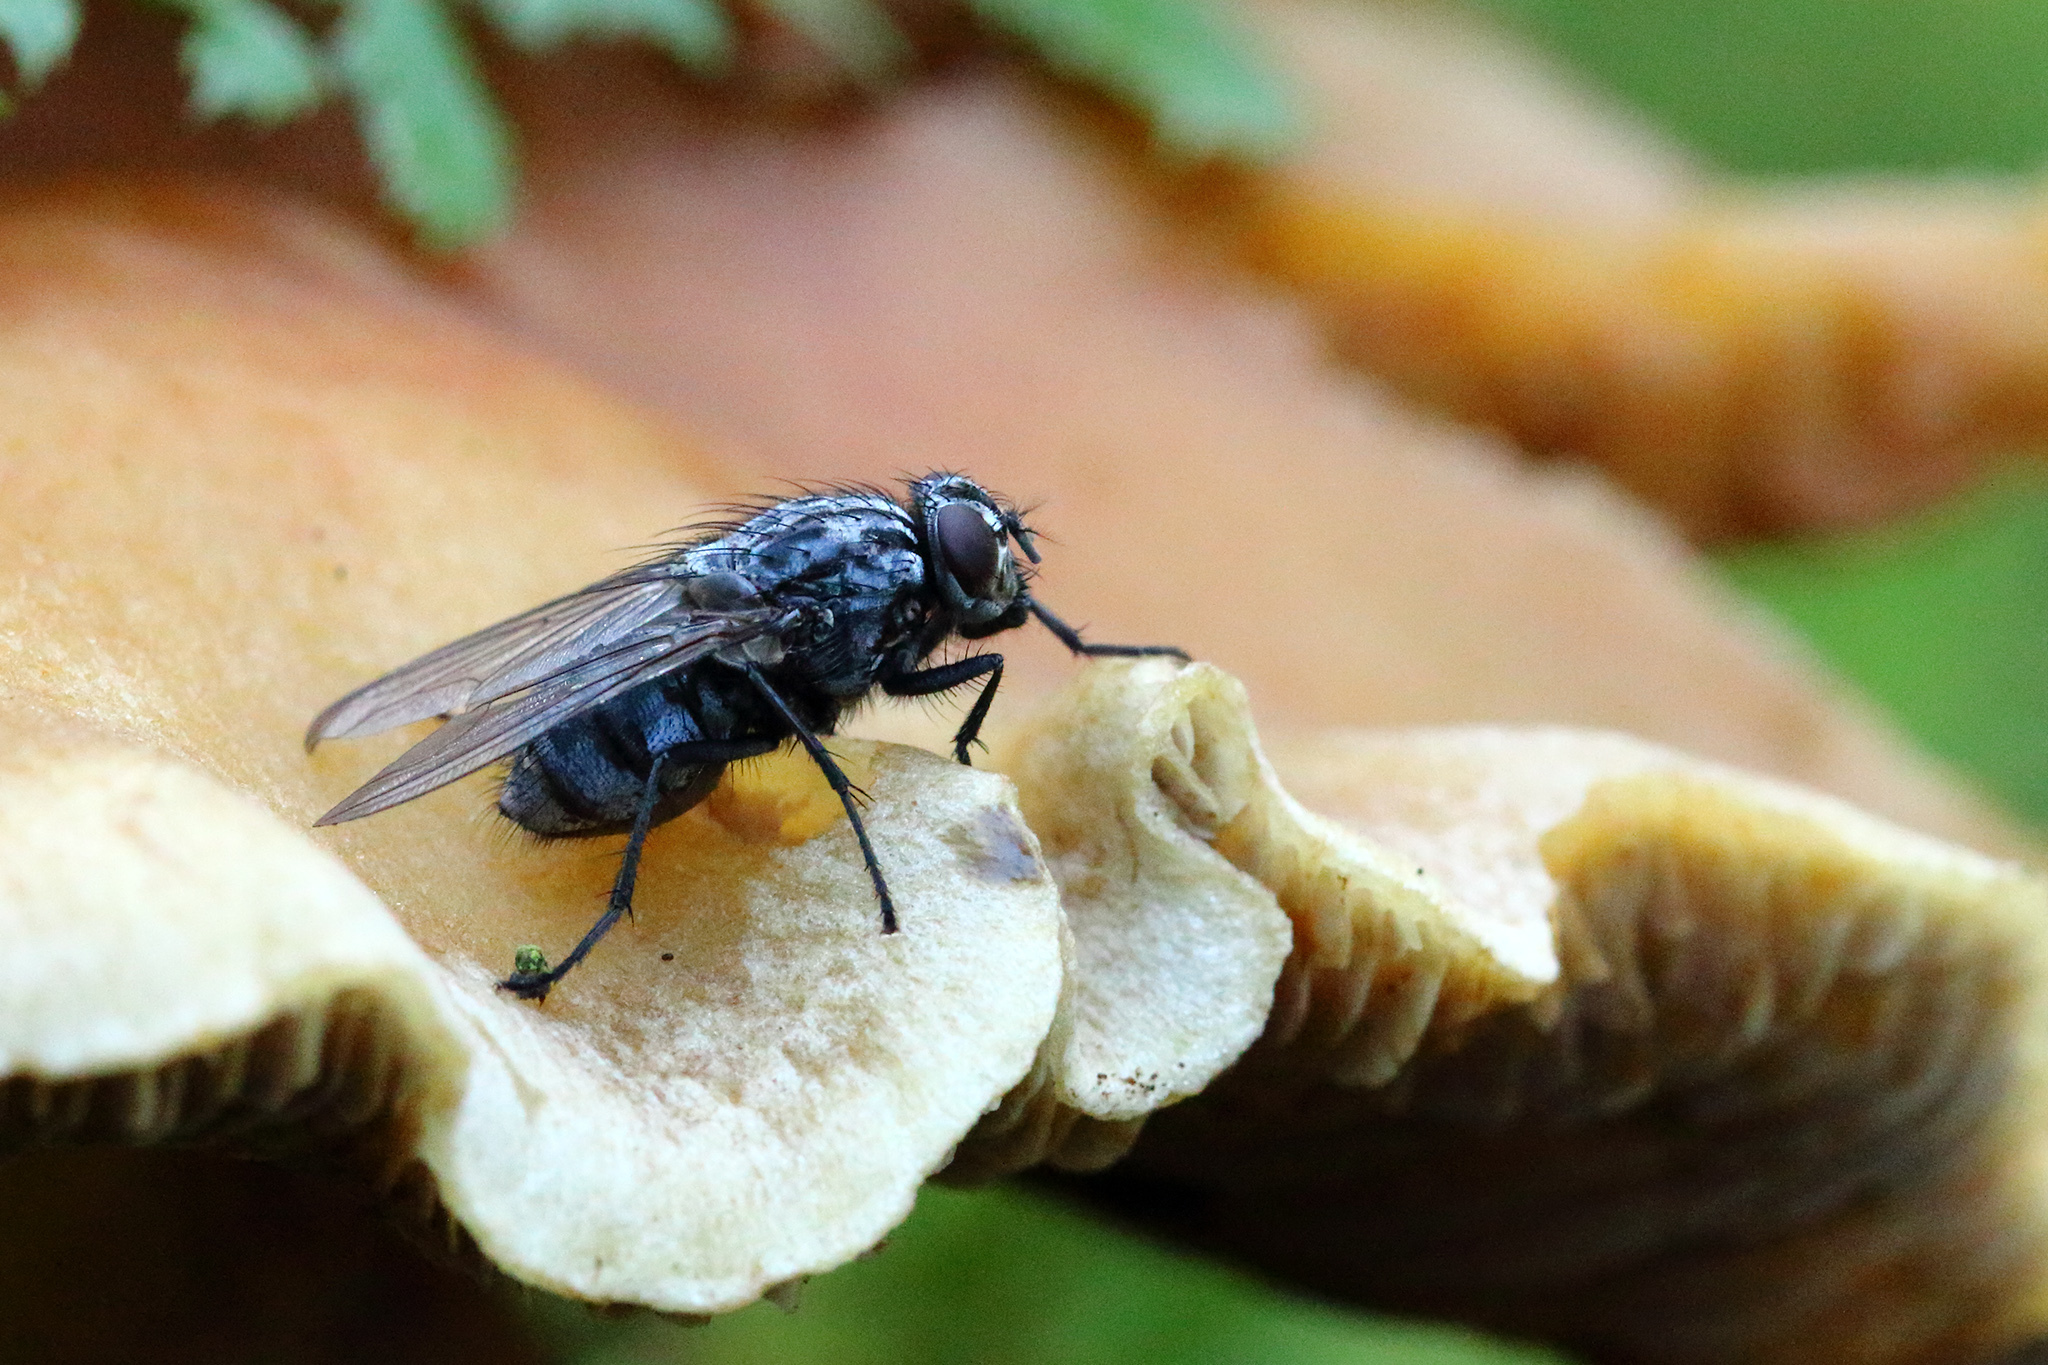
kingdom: Animalia
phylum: Arthropoda
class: Insecta
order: Diptera
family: Calliphoridae
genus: Calliphora
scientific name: Calliphora vicina
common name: Common blow flie
